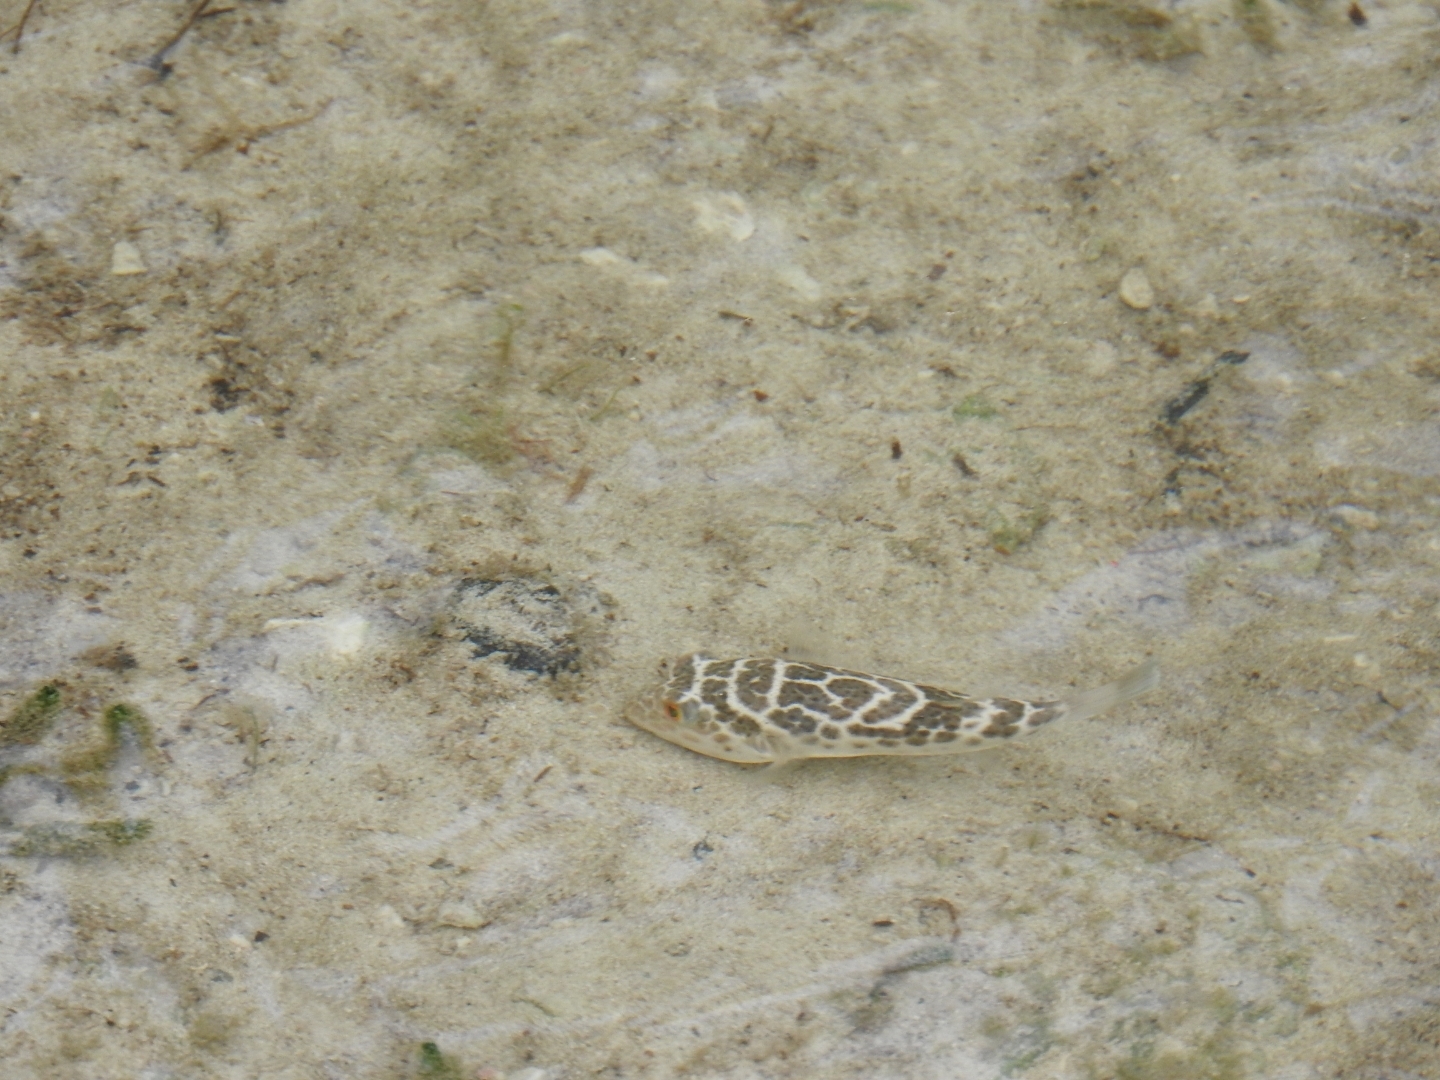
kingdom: Animalia
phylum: Chordata
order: Tetraodontiformes
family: Tetraodontidae
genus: Sphoeroides
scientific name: Sphoeroides testudineus
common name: Checkered puffer
